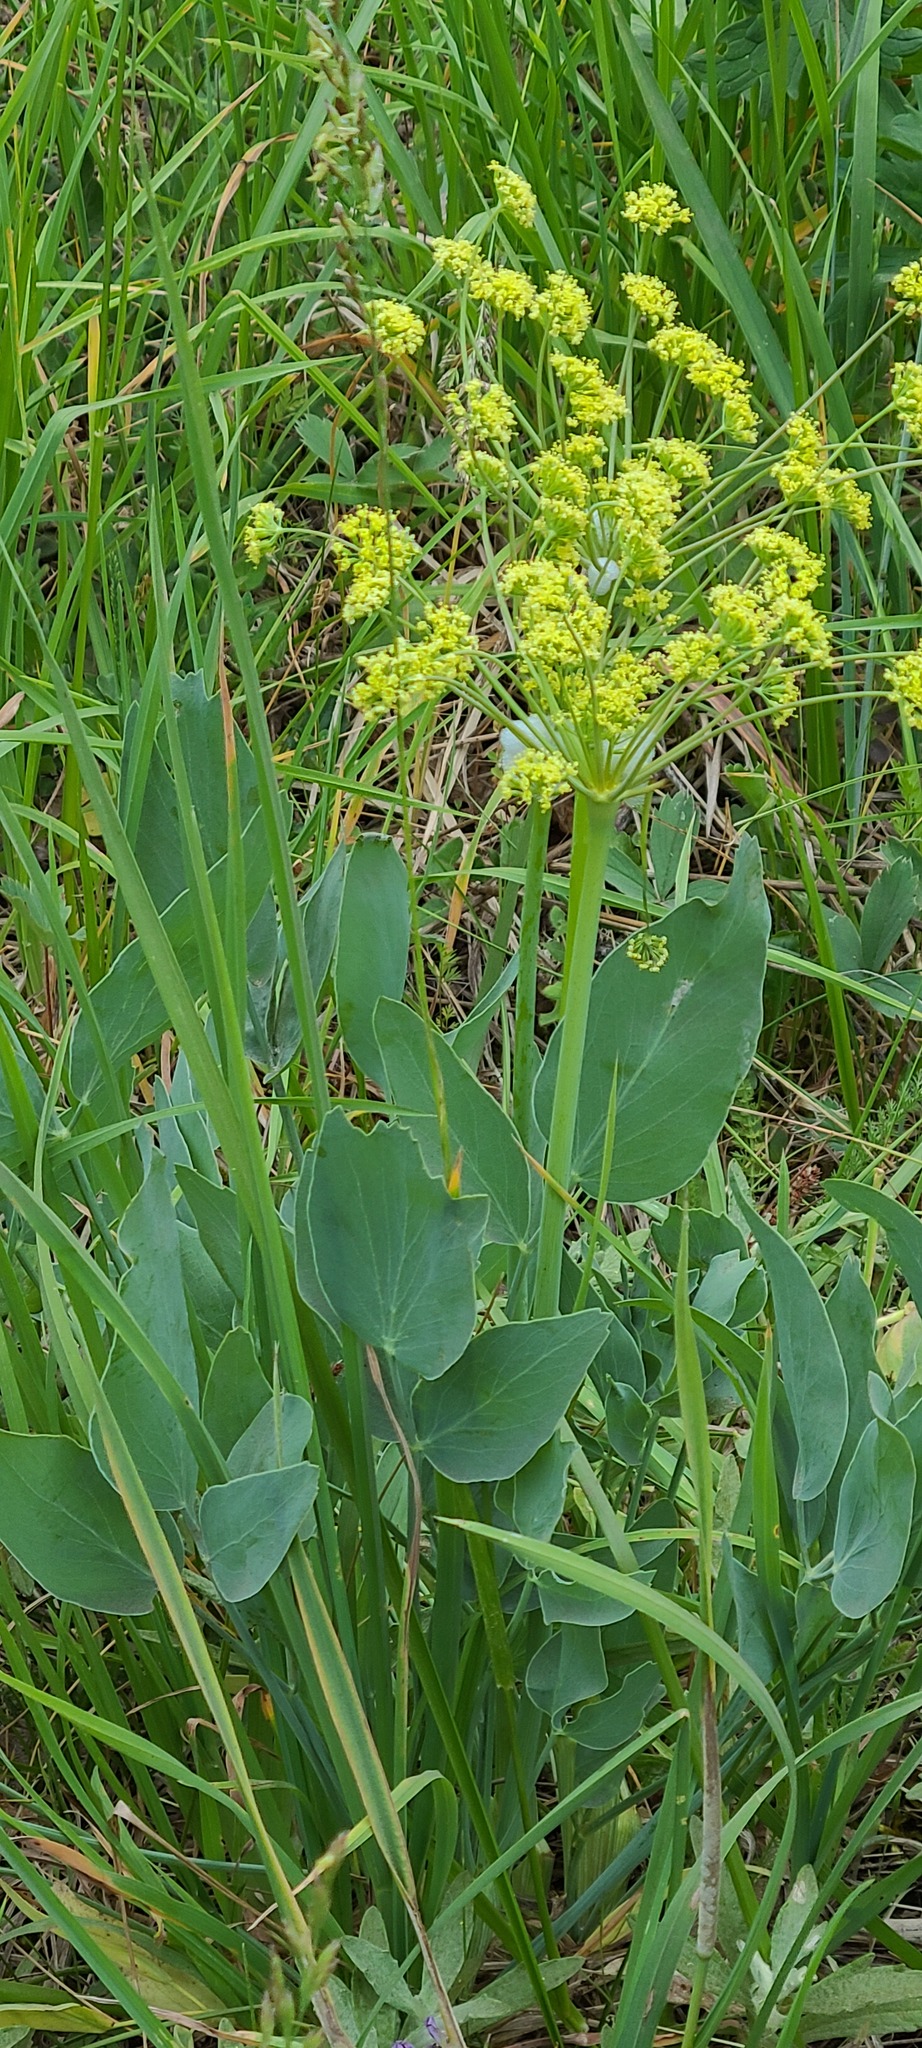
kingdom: Plantae
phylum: Tracheophyta
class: Magnoliopsida
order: Apiales
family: Apiaceae
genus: Lomatium
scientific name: Lomatium nudicaule
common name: Pestle lomatium
